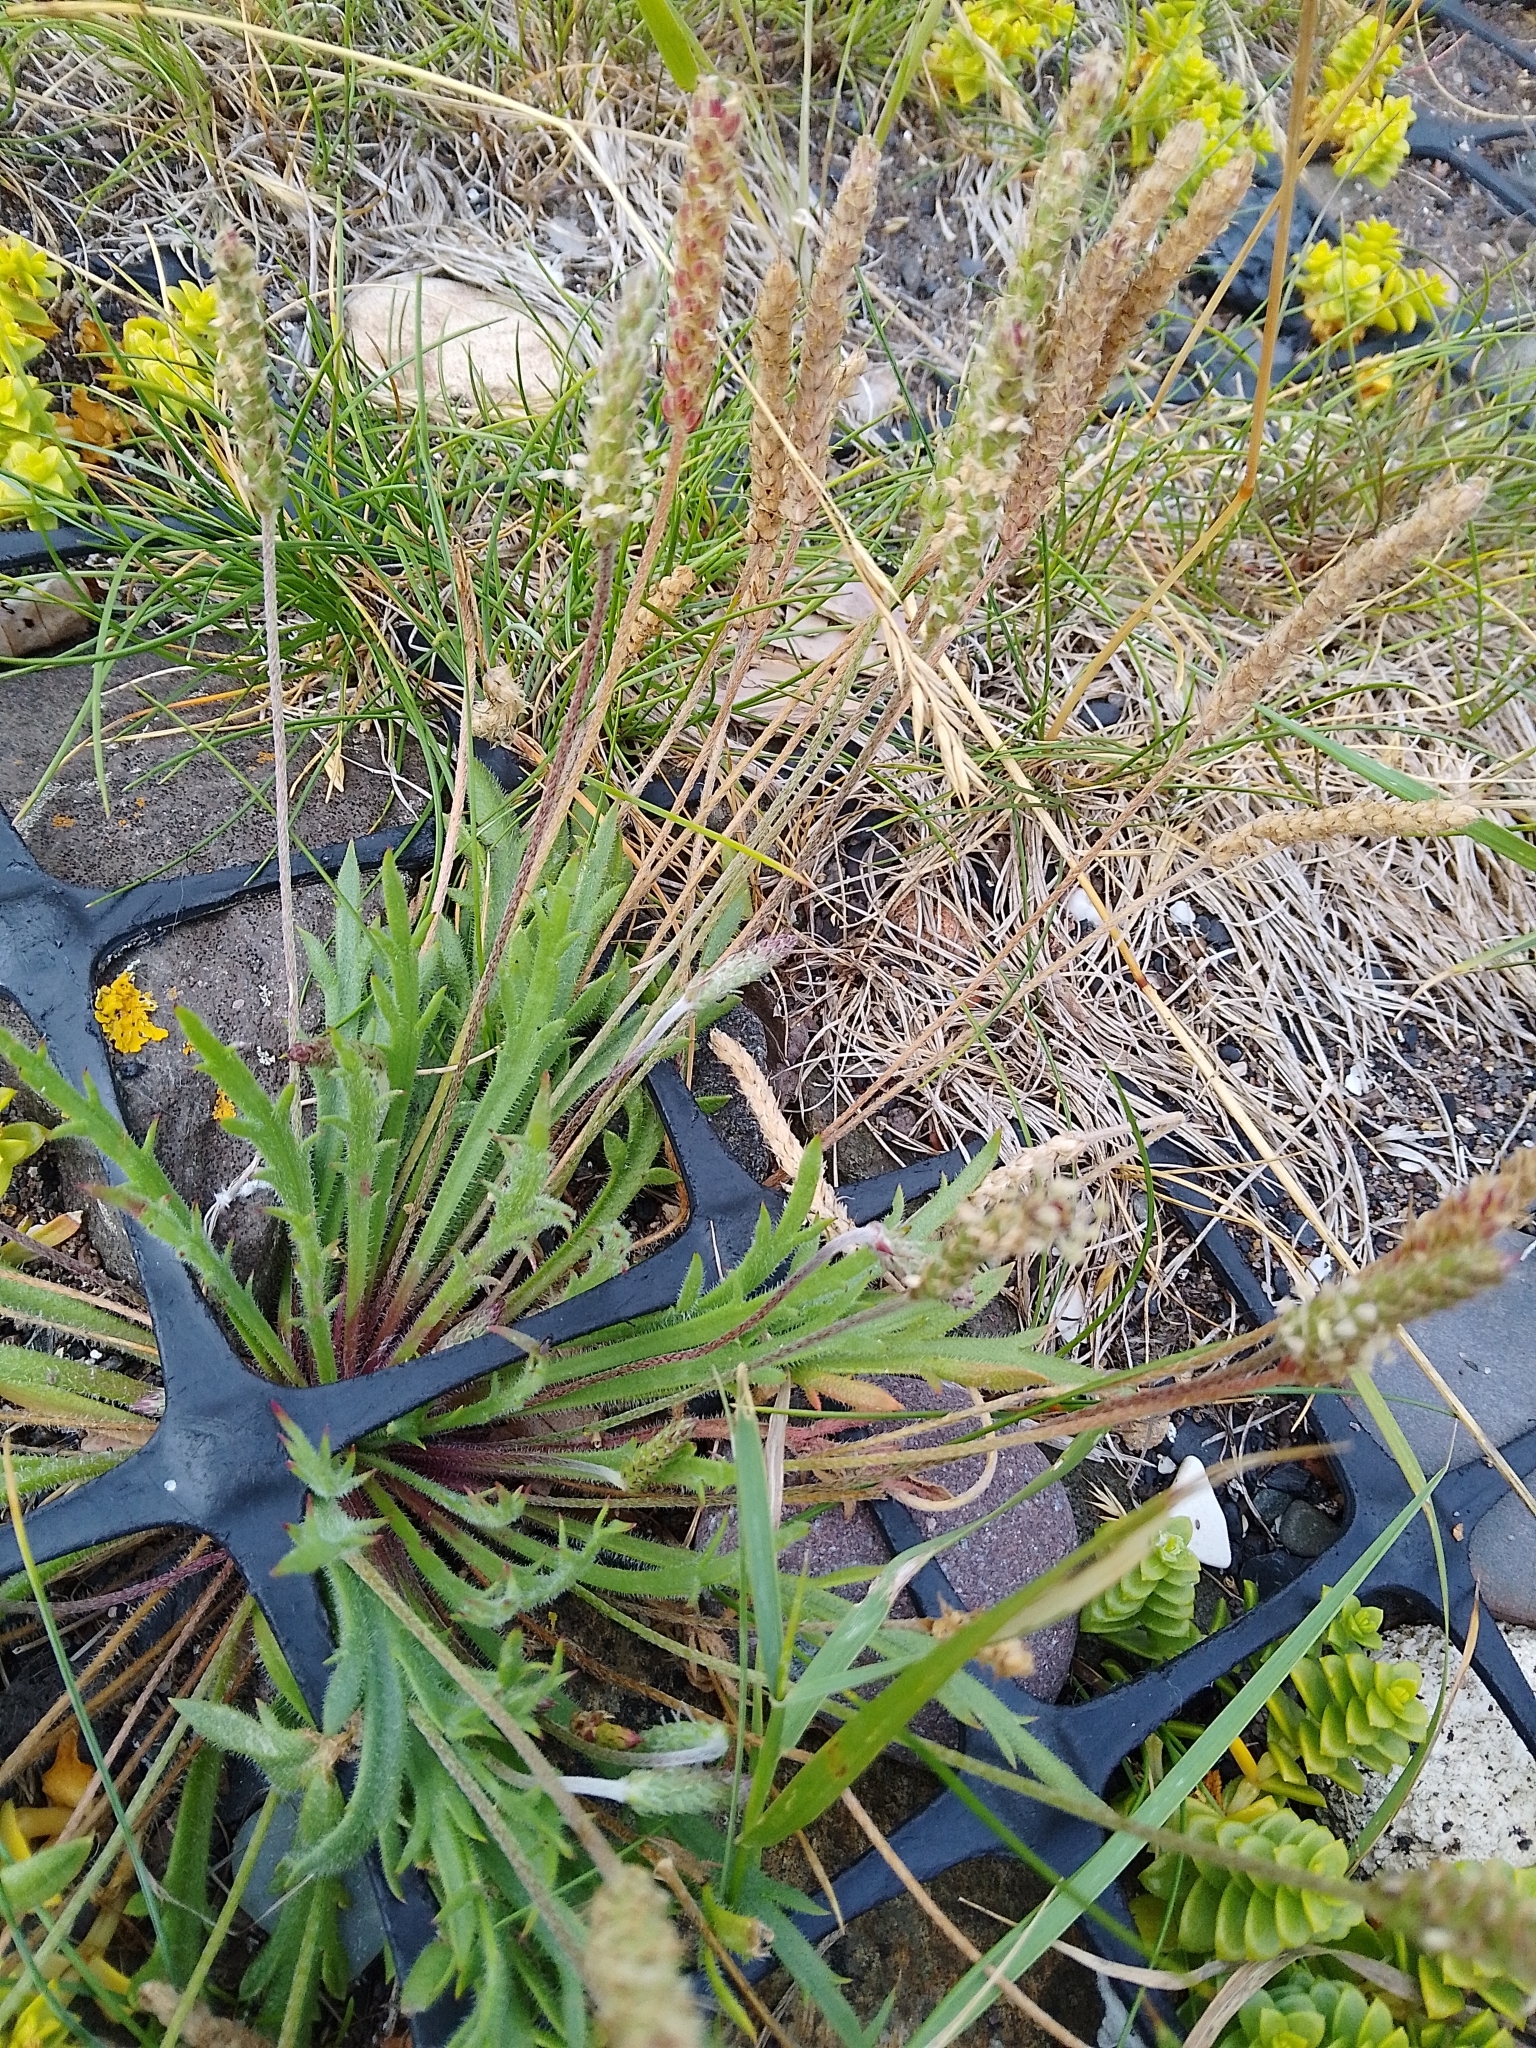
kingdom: Plantae
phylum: Tracheophyta
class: Magnoliopsida
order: Lamiales
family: Plantaginaceae
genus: Plantago
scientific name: Plantago coronopus
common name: Buck's-horn plantain
